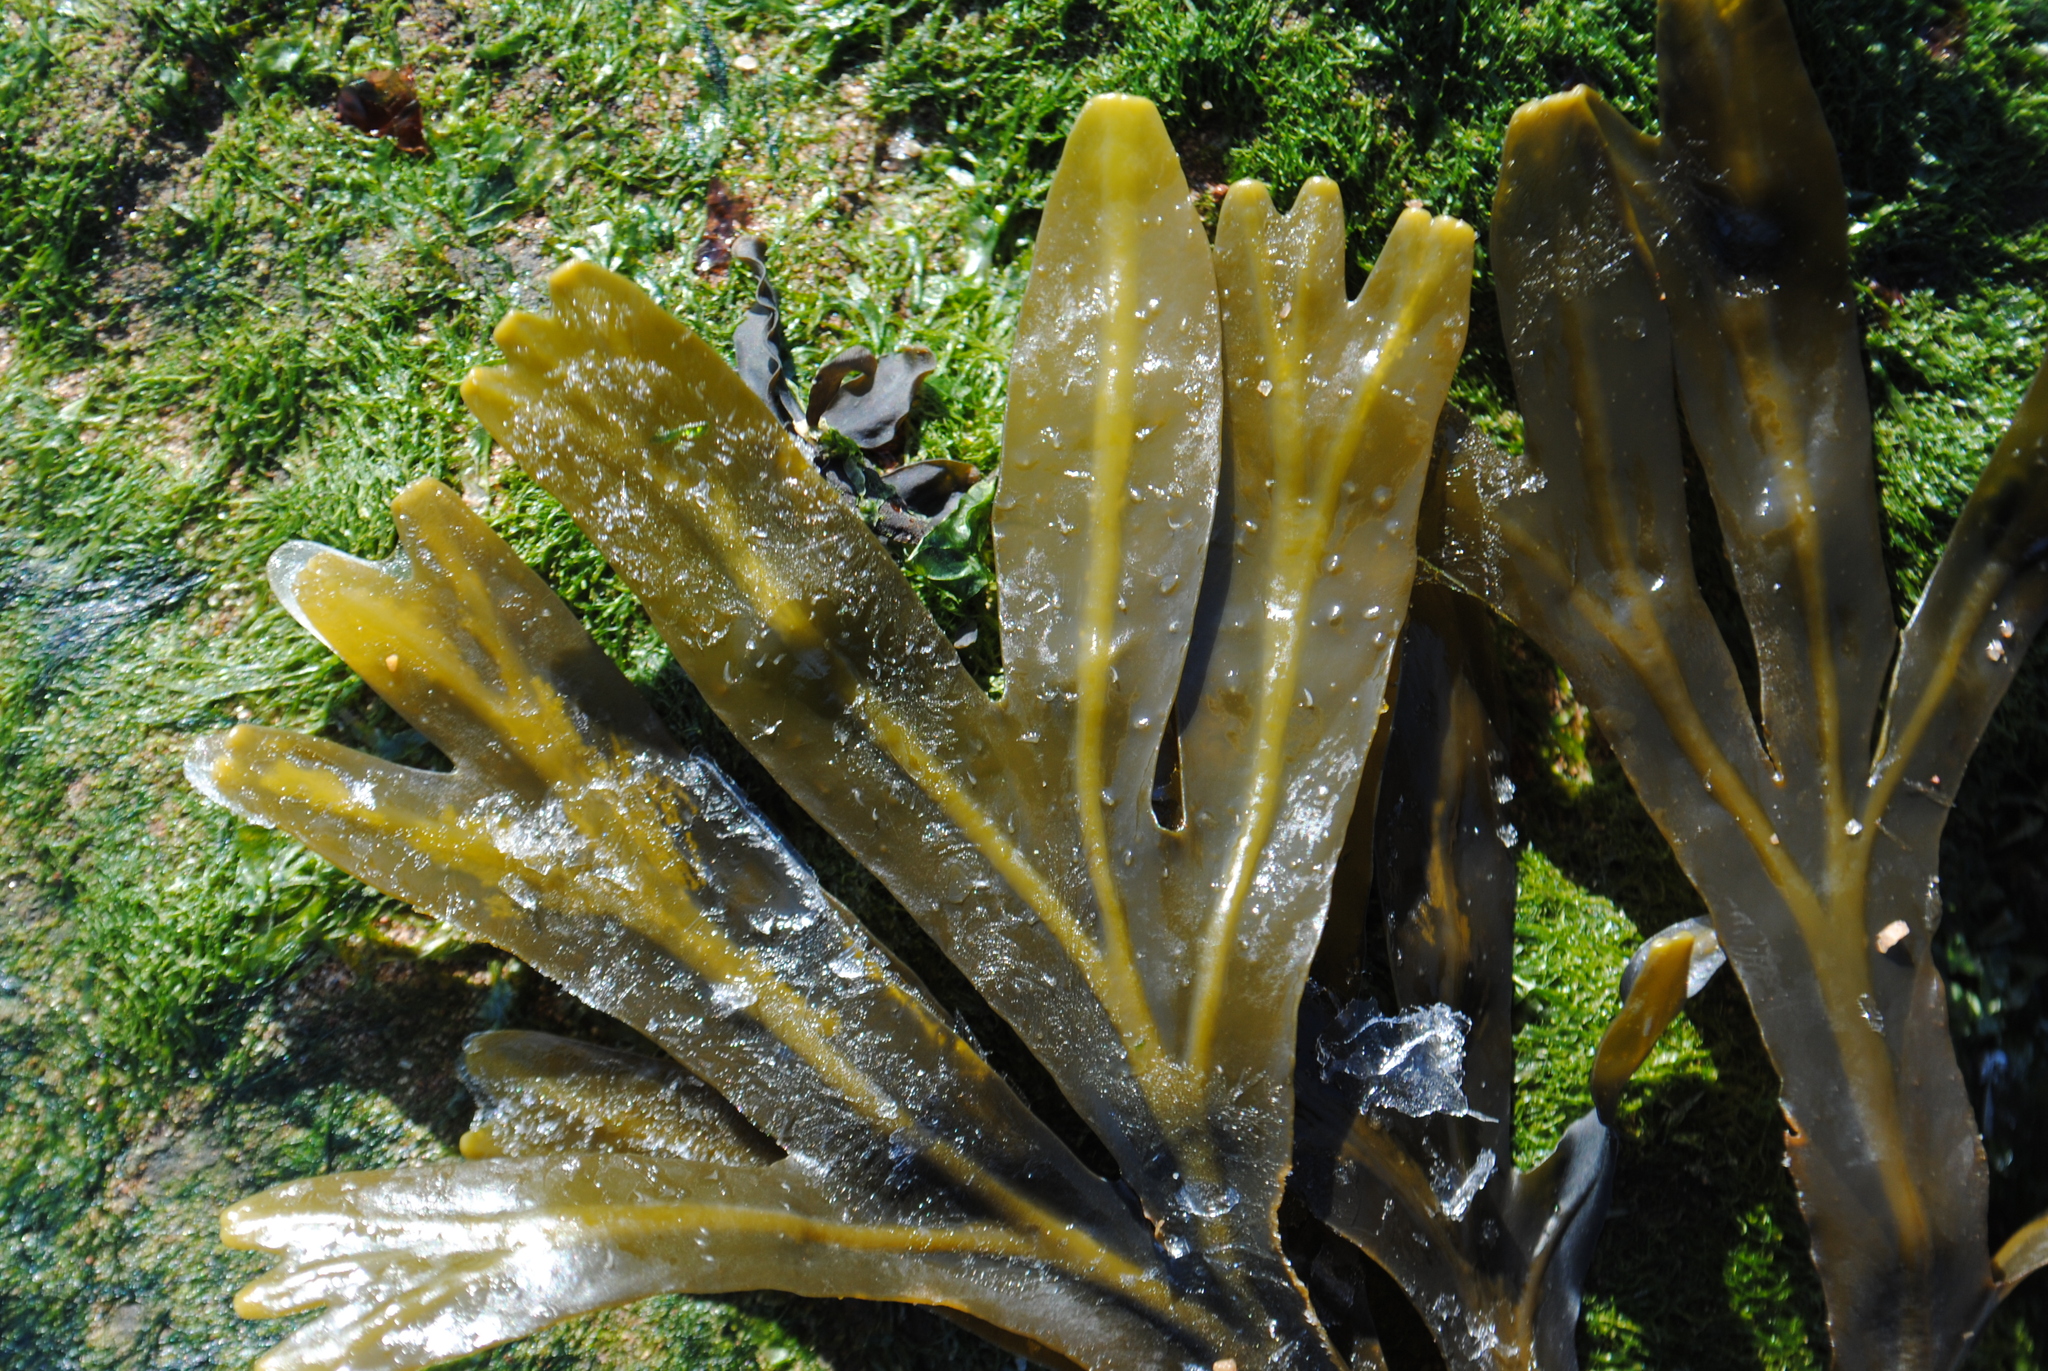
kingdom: Chromista
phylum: Ochrophyta
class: Phaeophyceae
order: Fucales
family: Fucaceae
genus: Fucus
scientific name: Fucus distichus
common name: Rockweed
